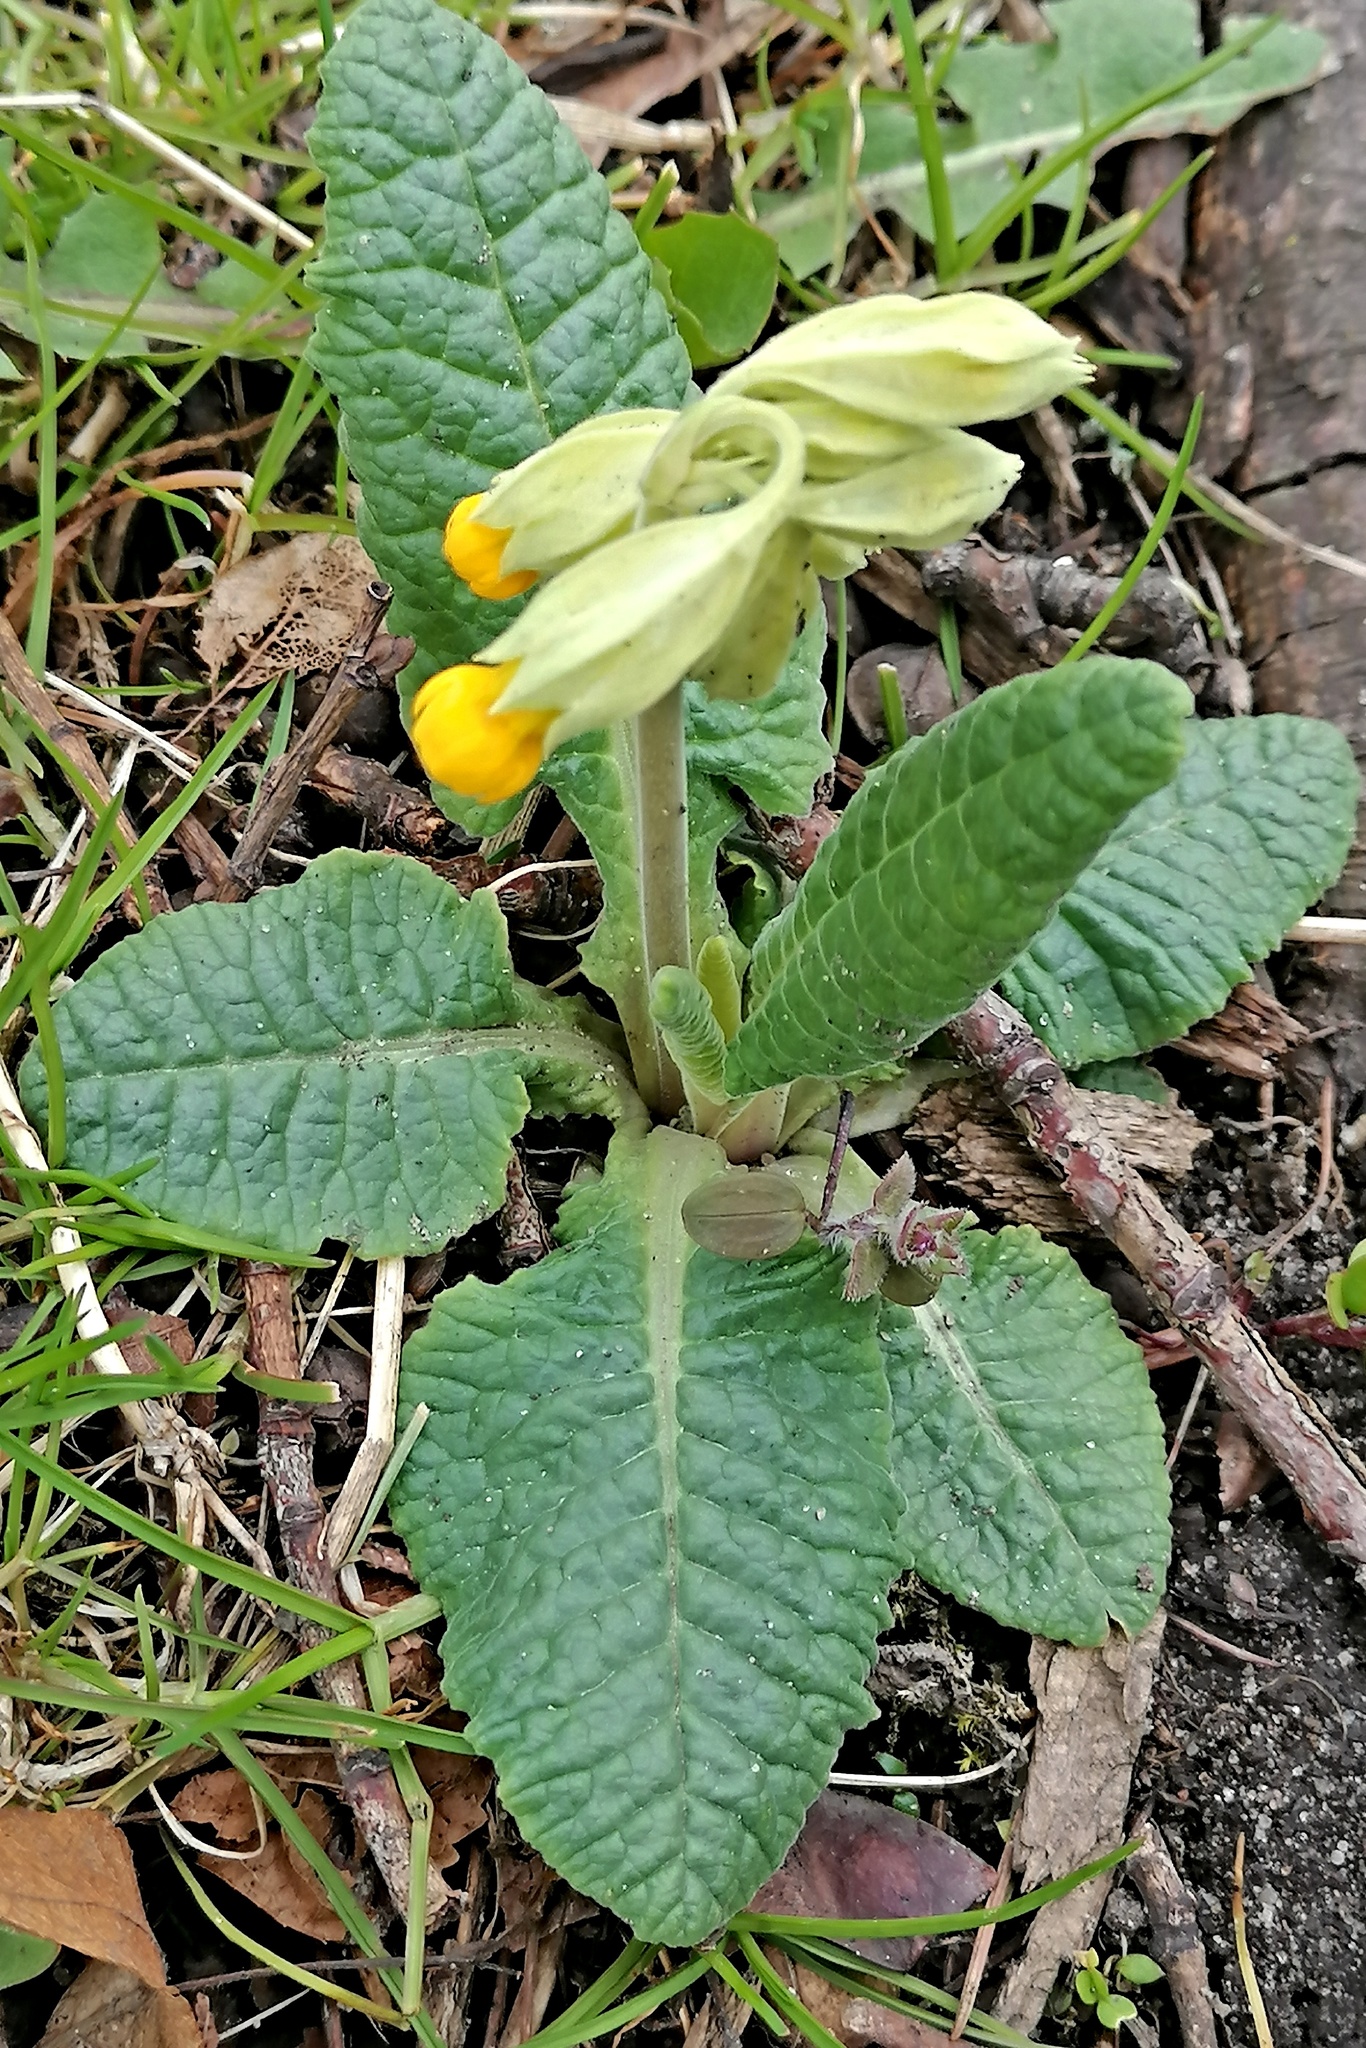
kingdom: Plantae
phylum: Tracheophyta
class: Magnoliopsida
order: Ericales
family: Primulaceae
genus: Primula
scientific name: Primula veris
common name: Cowslip
